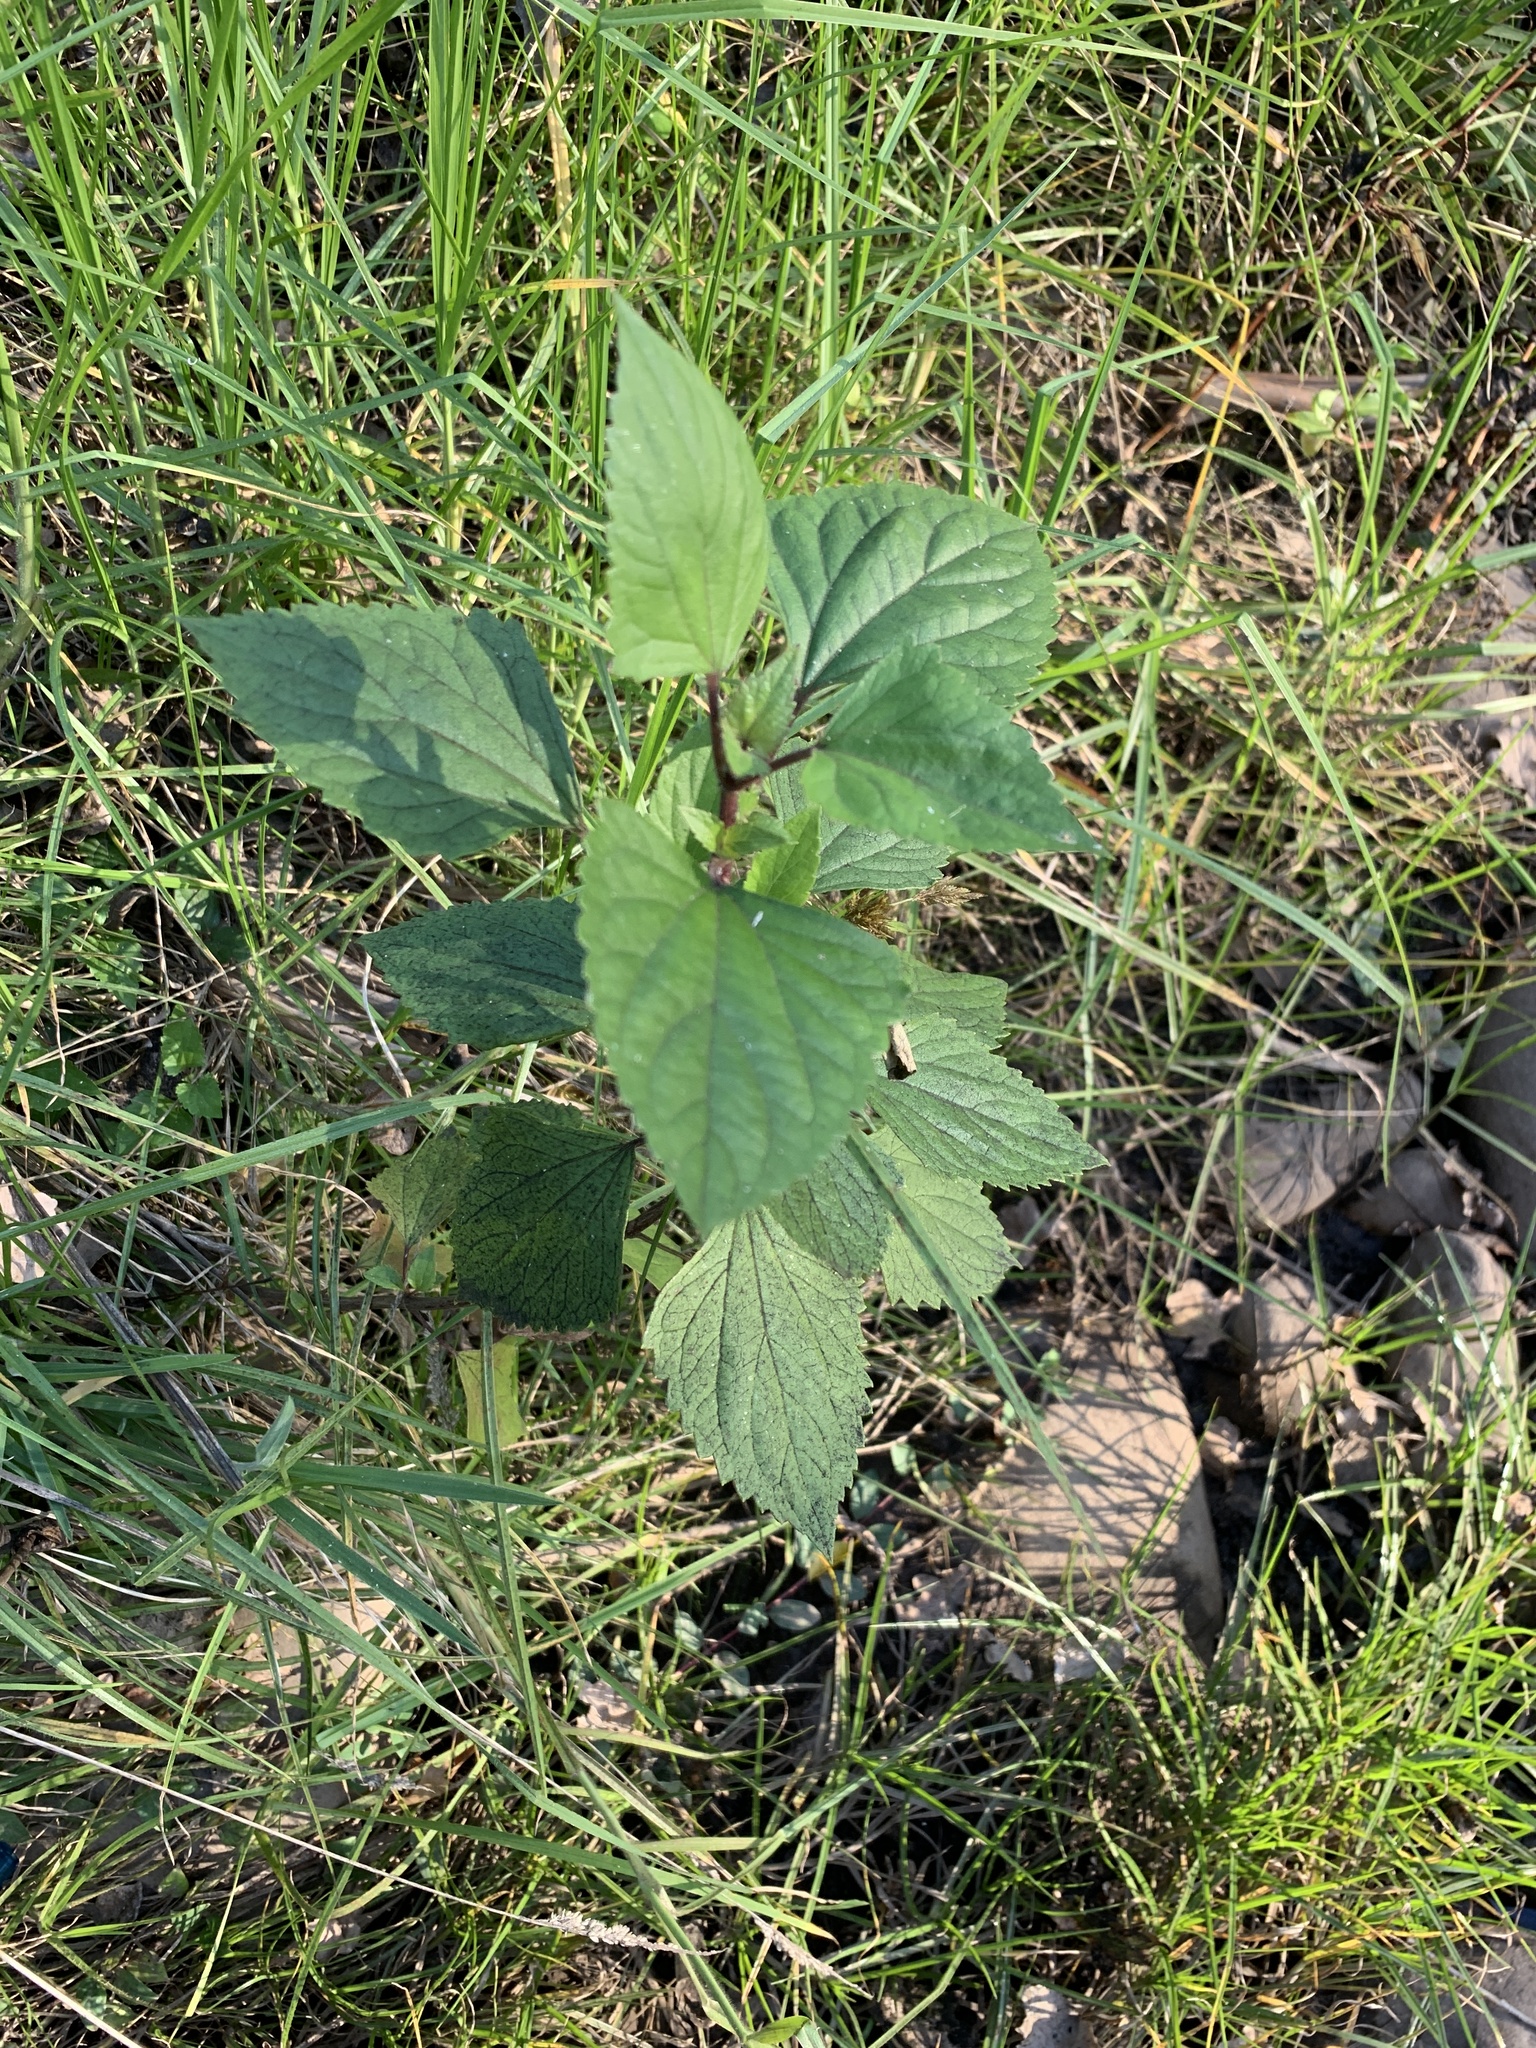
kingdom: Plantae
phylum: Tracheophyta
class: Magnoliopsida
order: Asterales
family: Asteraceae
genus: Ageratina
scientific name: Ageratina adenophora
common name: Sticky snakeroot
